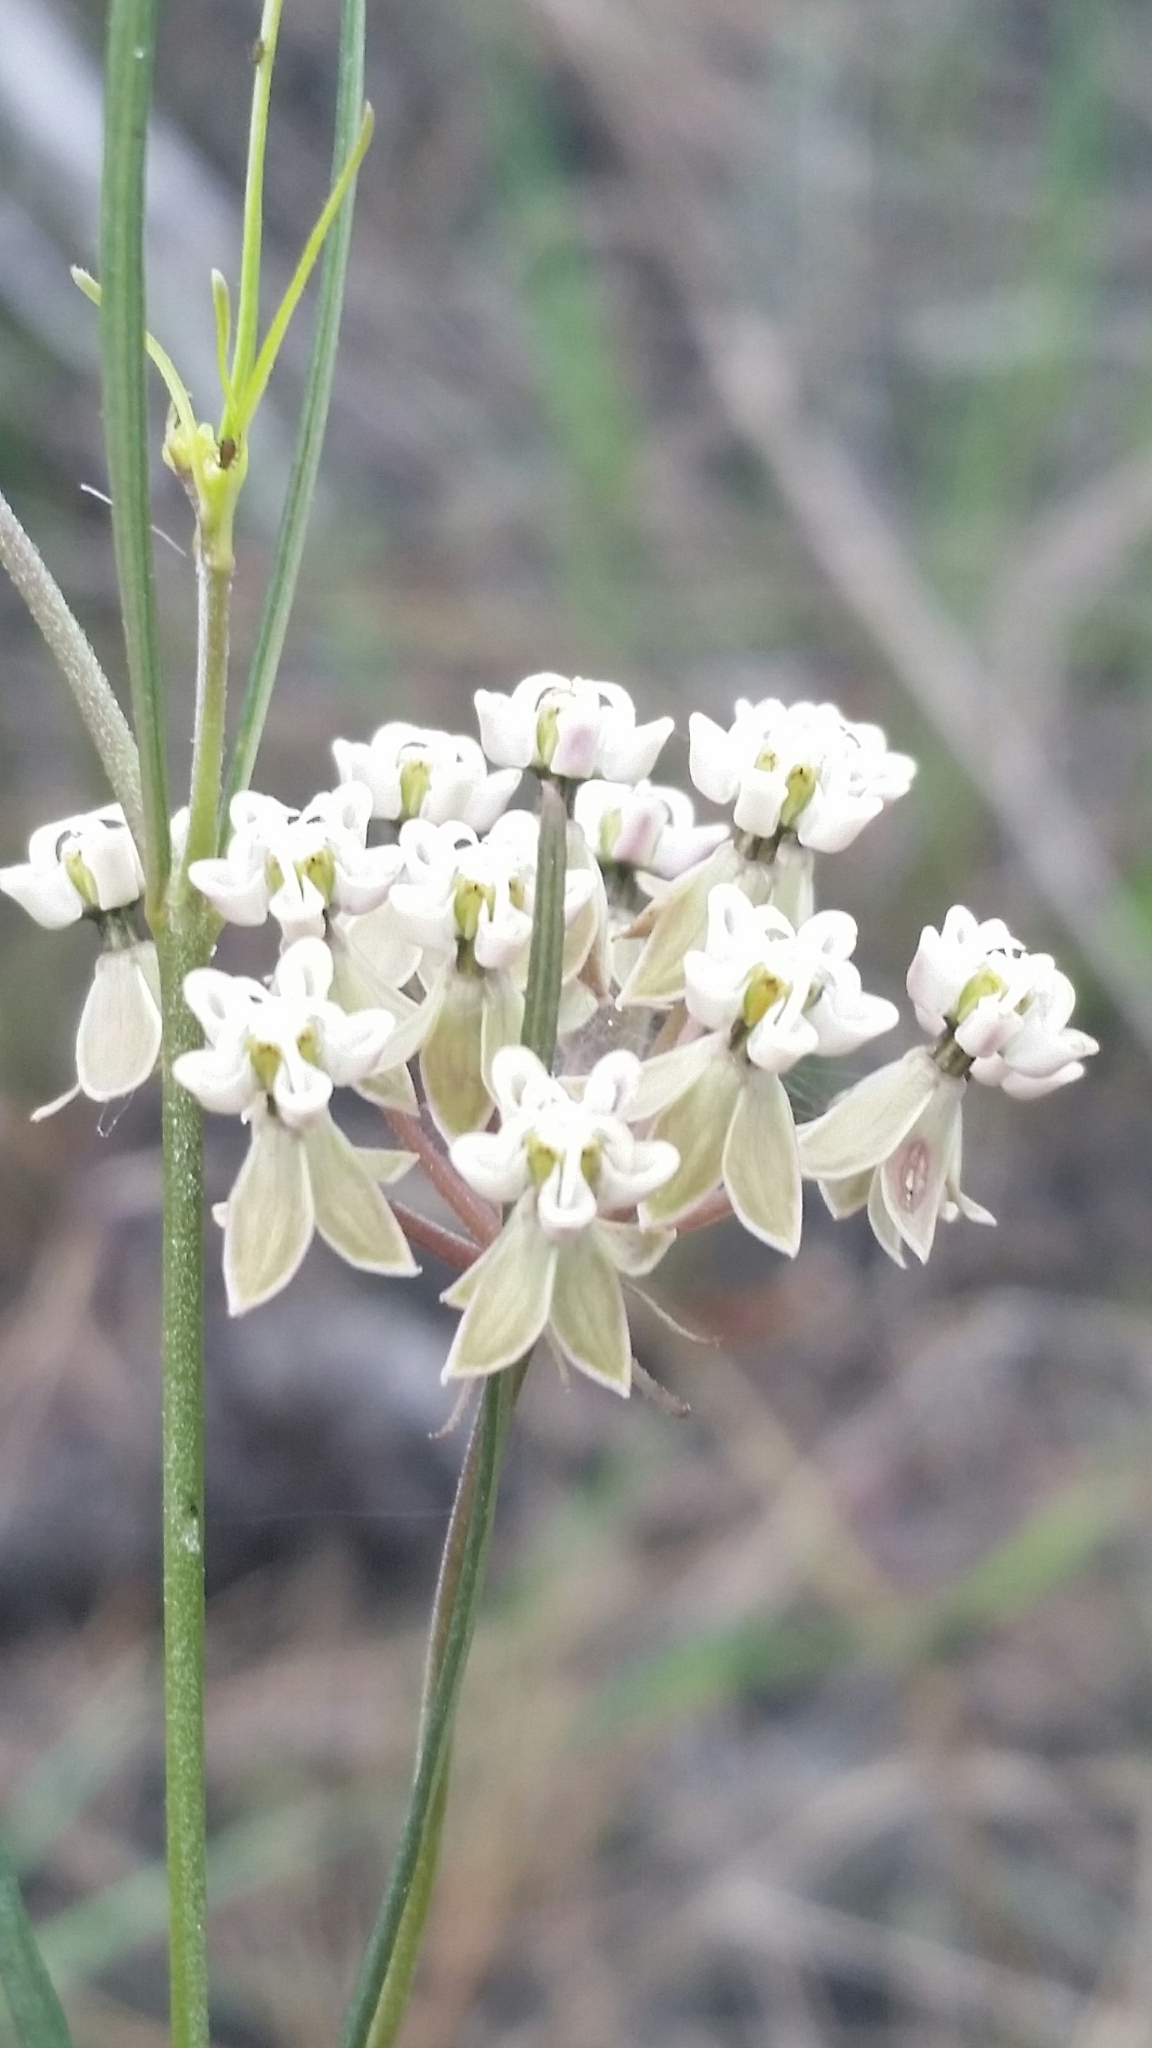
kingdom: Plantae
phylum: Tracheophyta
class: Magnoliopsida
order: Gentianales
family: Apocynaceae
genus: Asclepias
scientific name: Asclepias verticillata
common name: Eastern whorled milkweed
